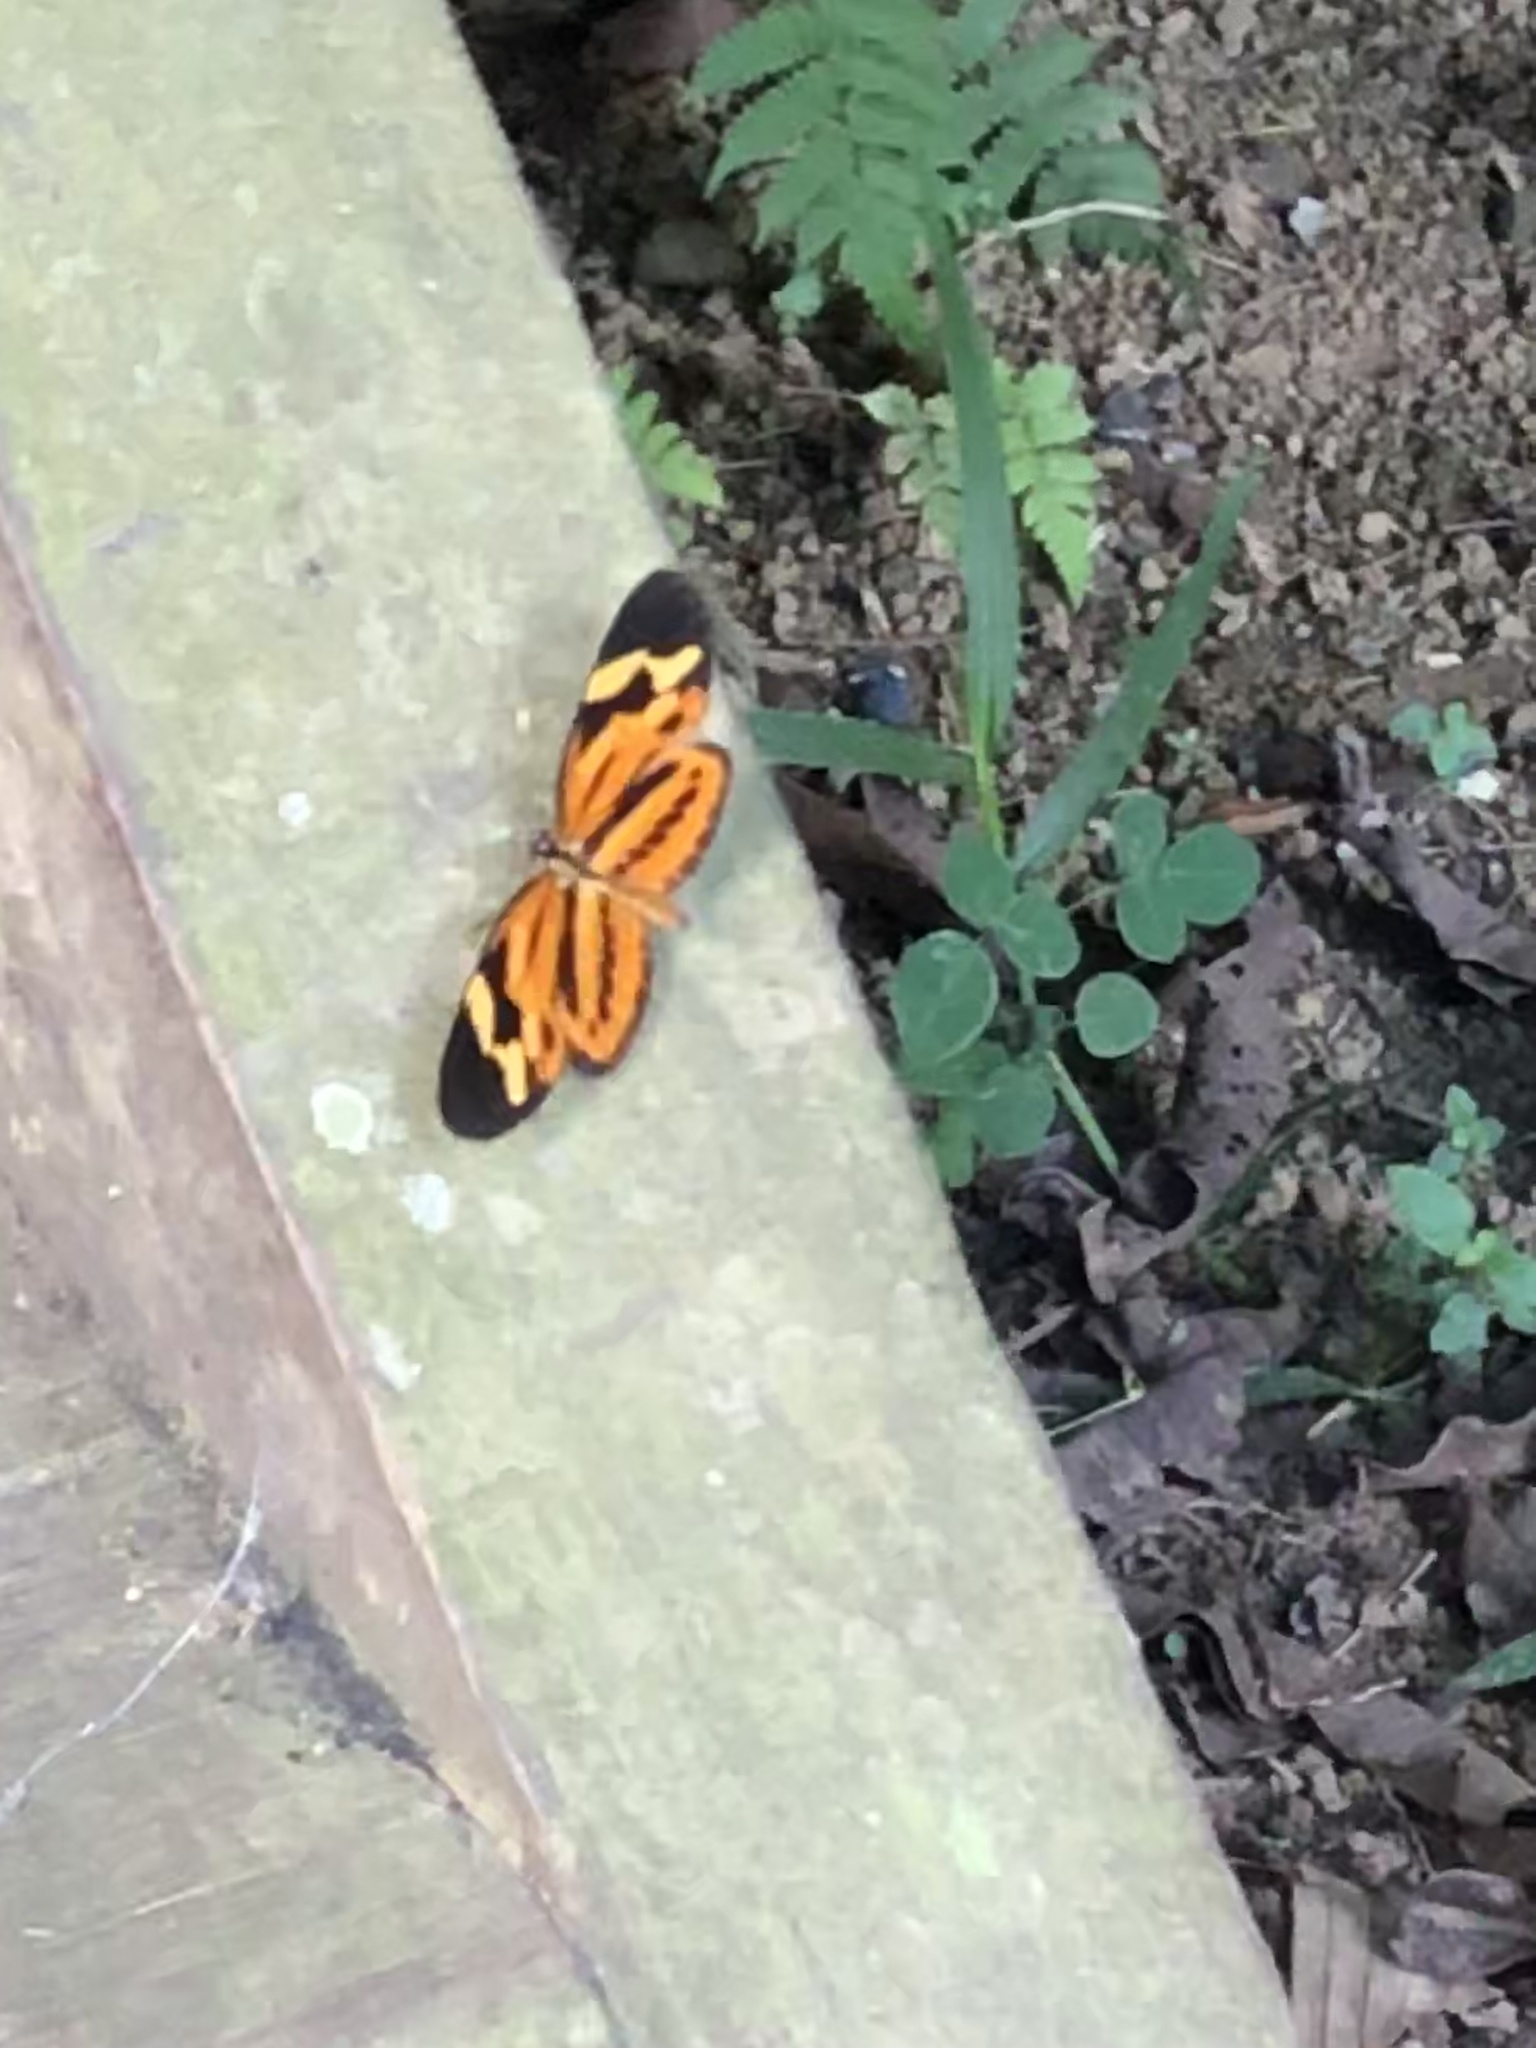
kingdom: Animalia
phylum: Arthropoda
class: Insecta
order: Lepidoptera
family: Nymphalidae
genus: Eresia
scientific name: Eresia eunice
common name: Tiger crescent
